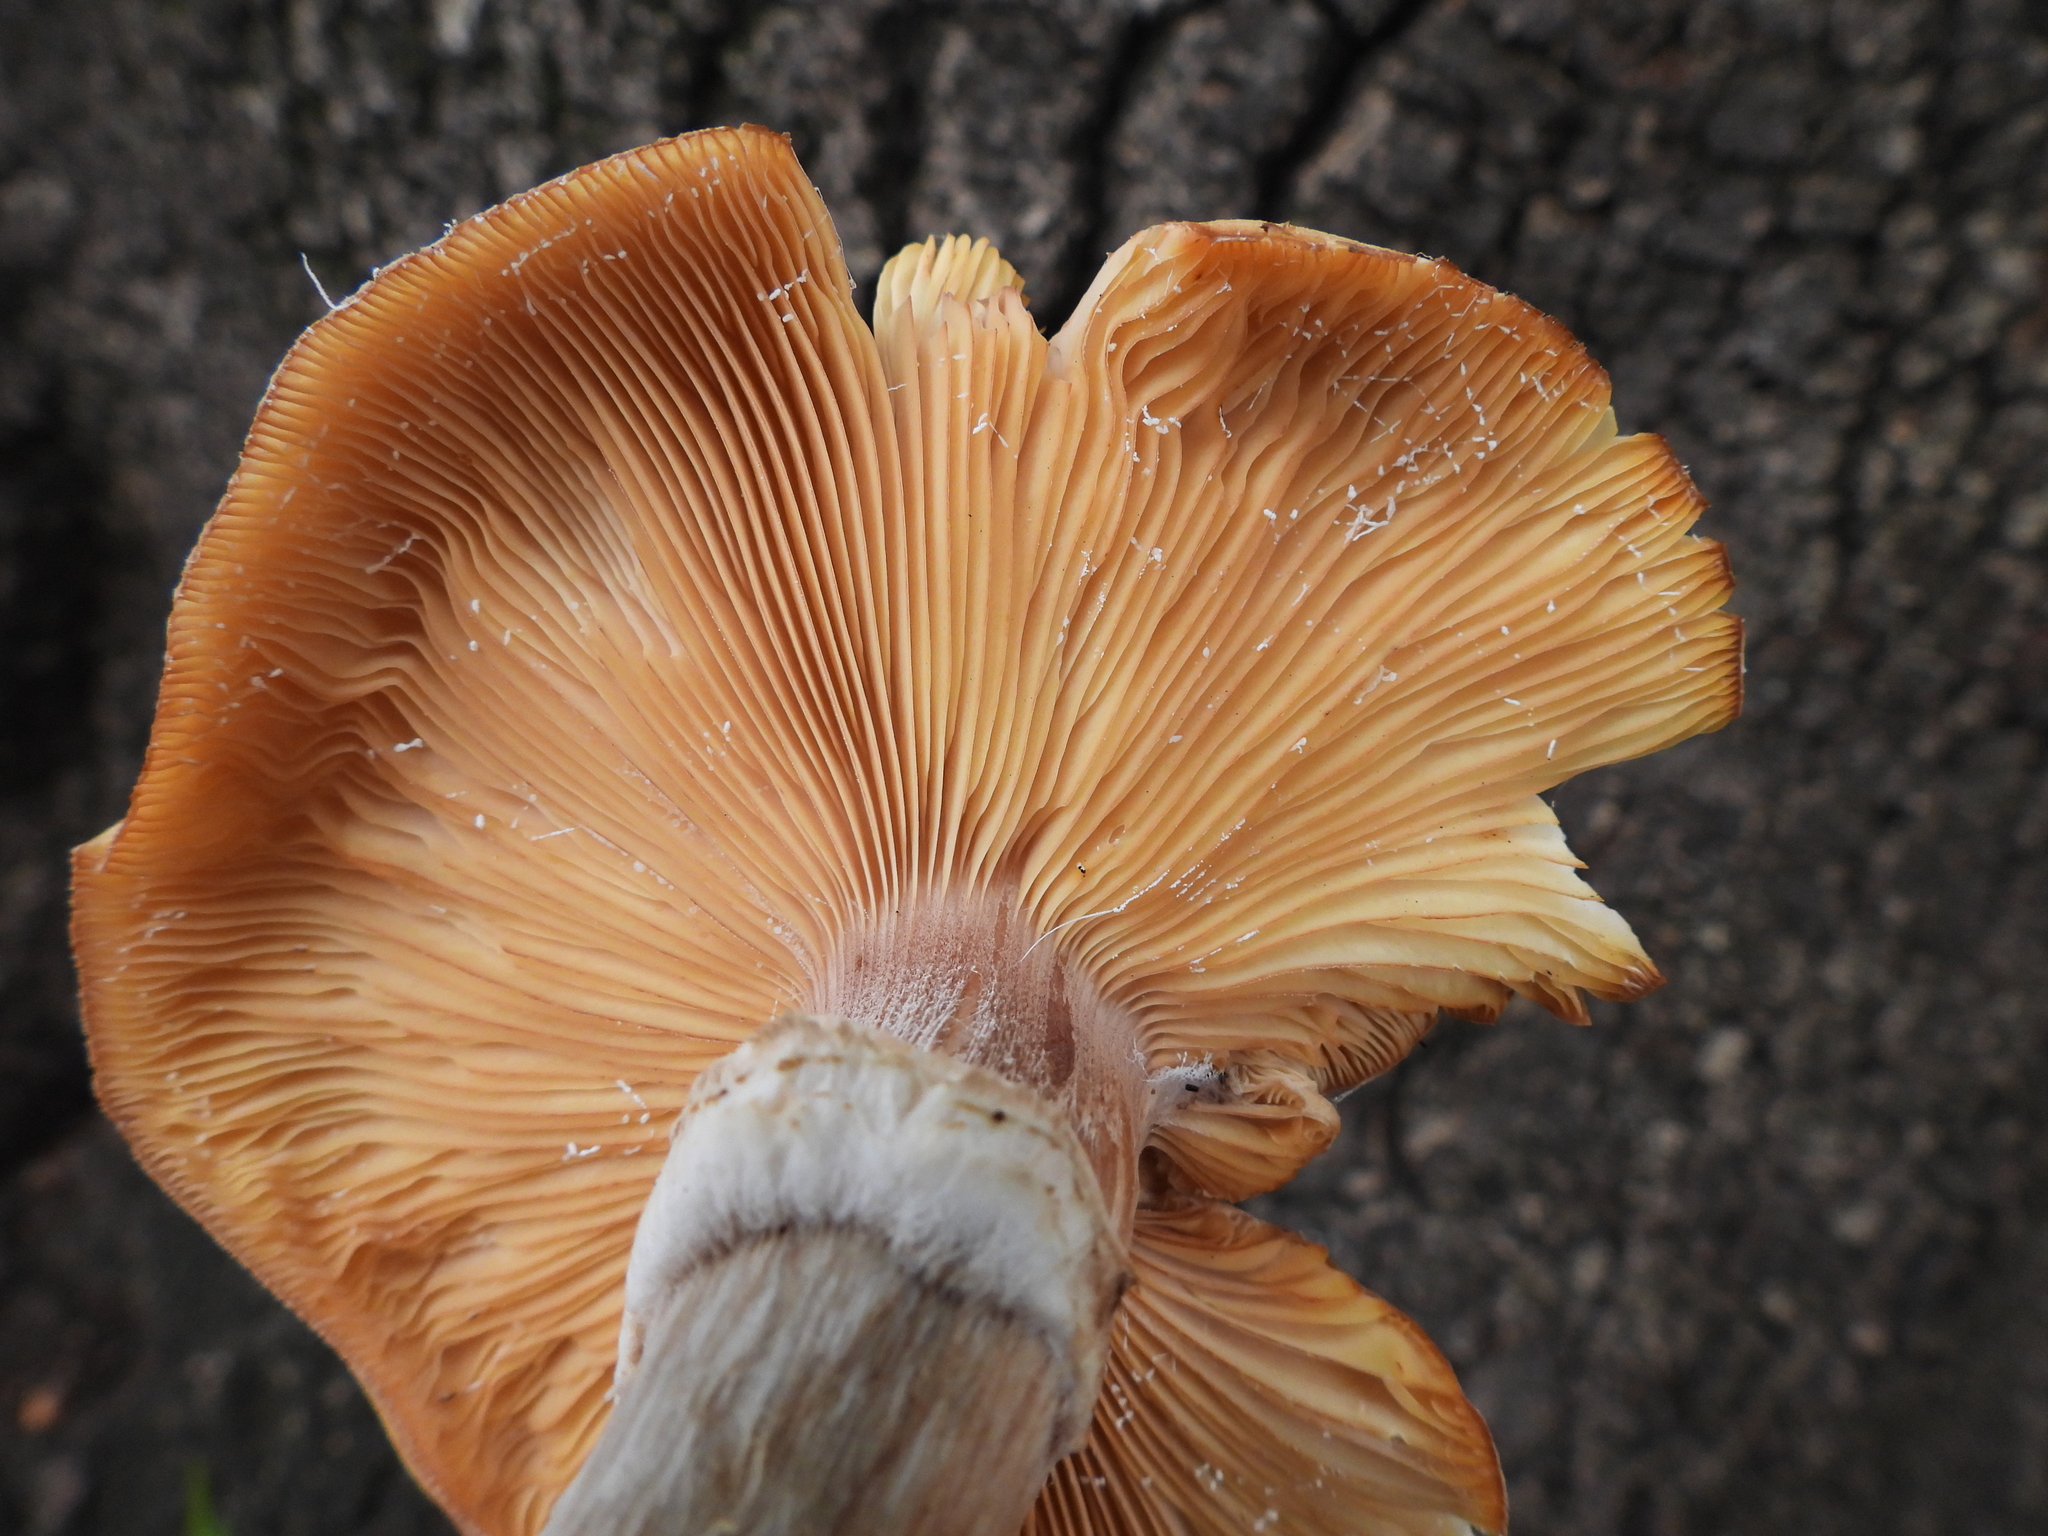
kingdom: Fungi
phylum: Basidiomycota
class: Agaricomycetes
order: Agaricales
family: Physalacriaceae
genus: Armillaria
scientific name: Armillaria mellea
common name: Honey fungus
